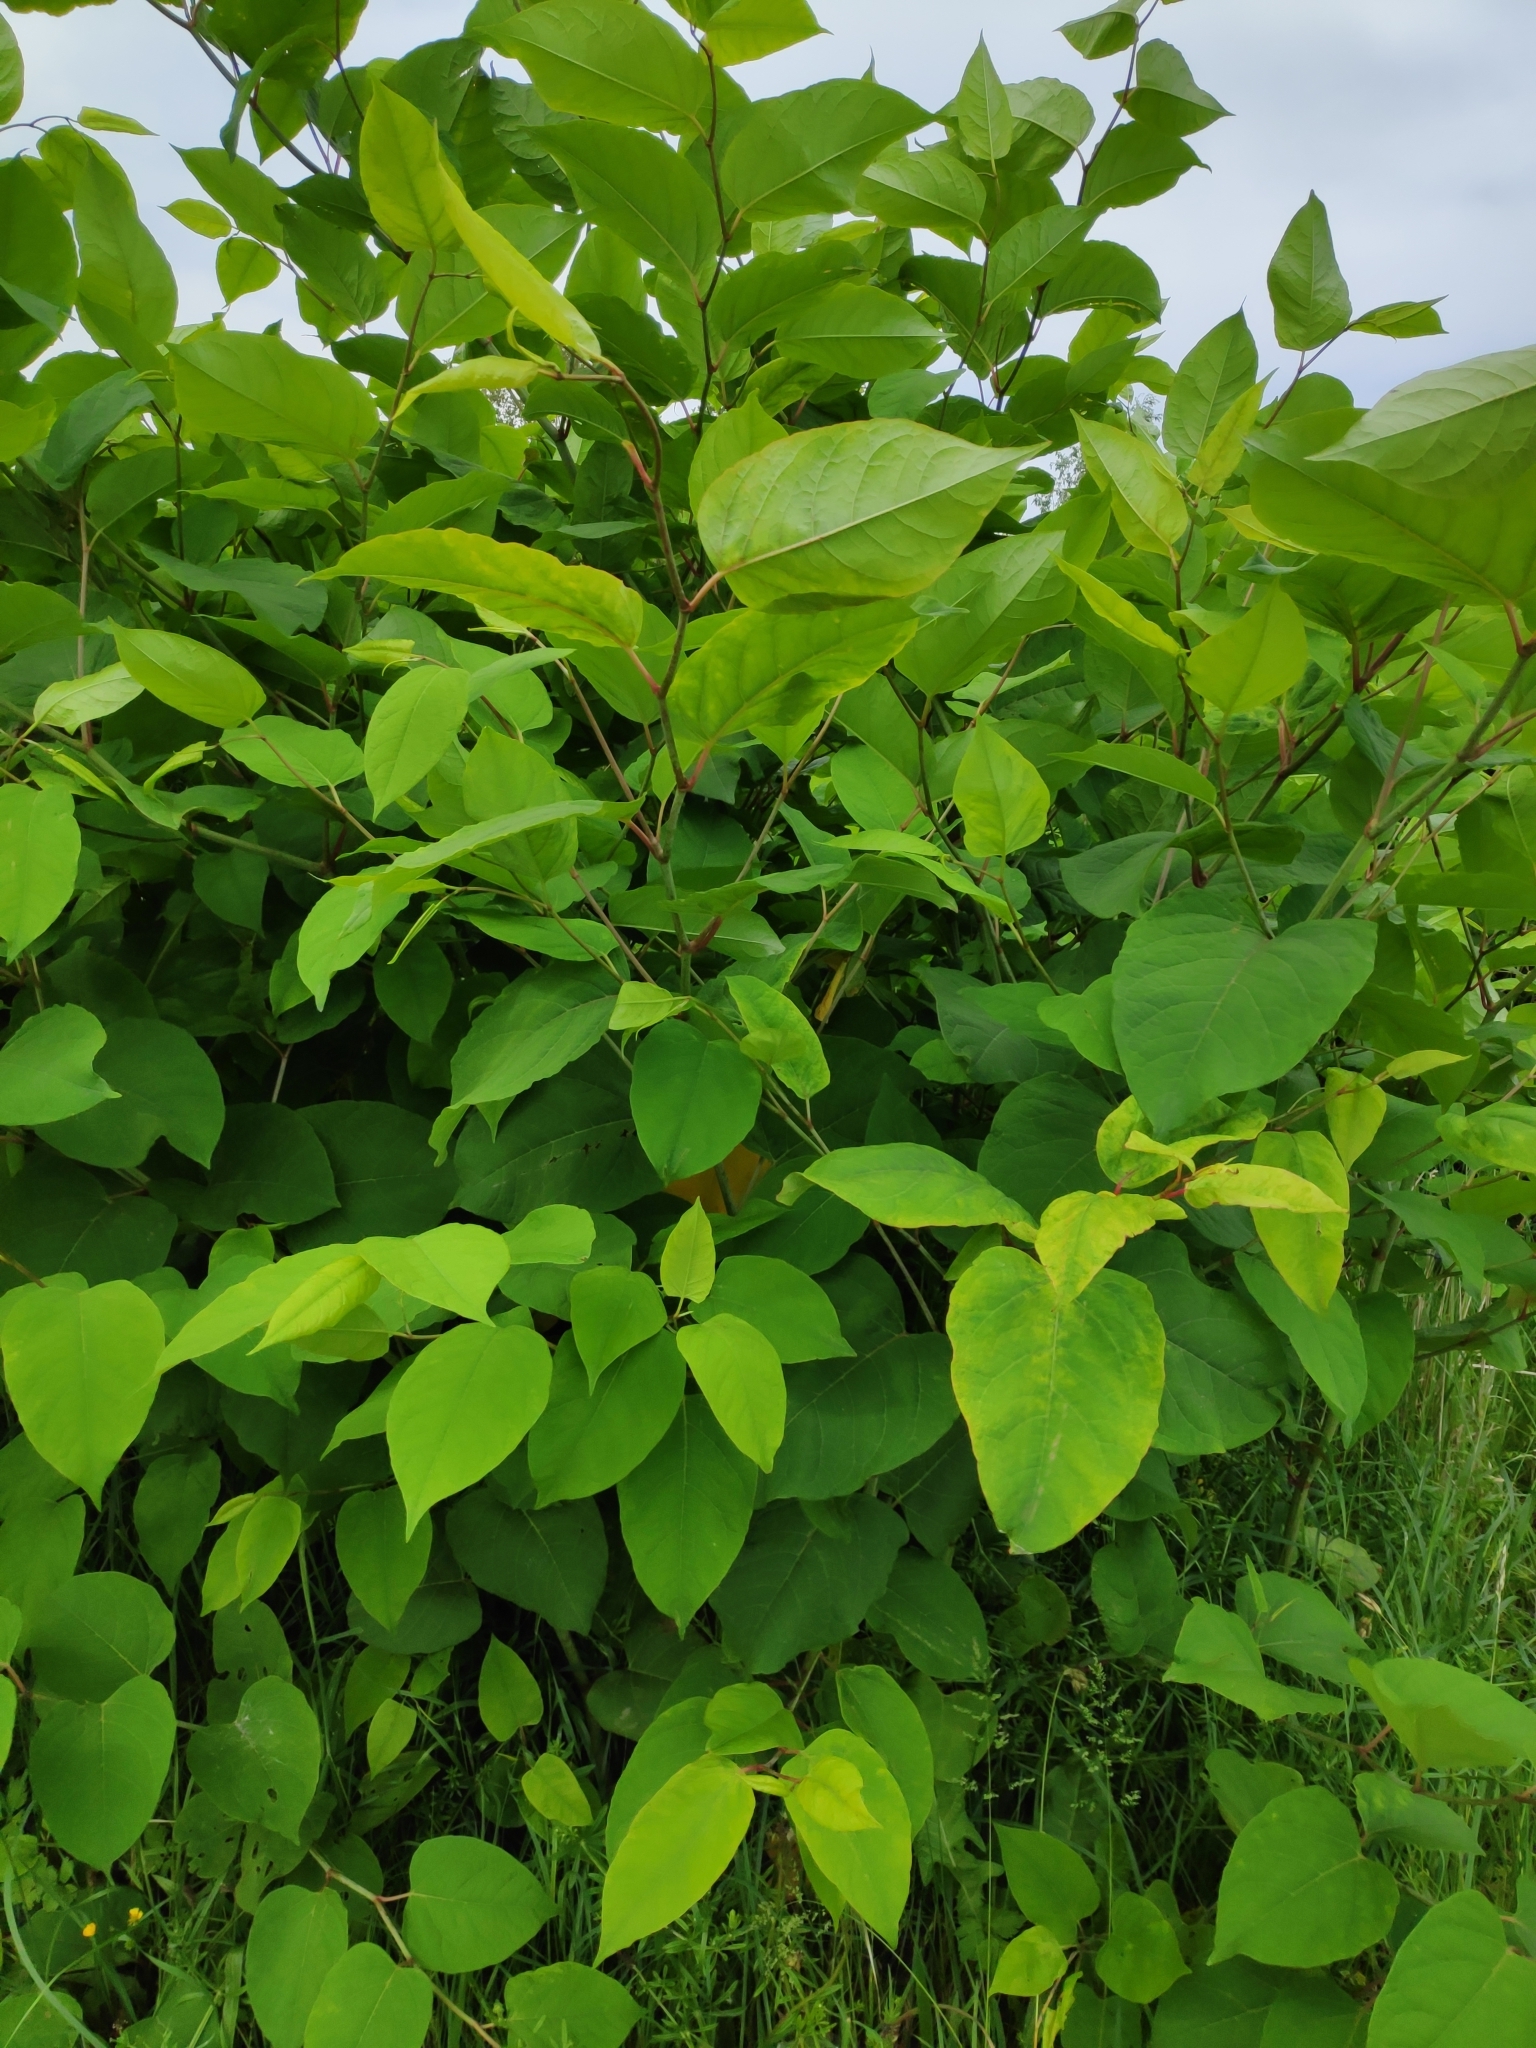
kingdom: Plantae
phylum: Tracheophyta
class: Magnoliopsida
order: Caryophyllales
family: Polygonaceae
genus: Reynoutria
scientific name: Reynoutria japonica
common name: Japanese knotweed
